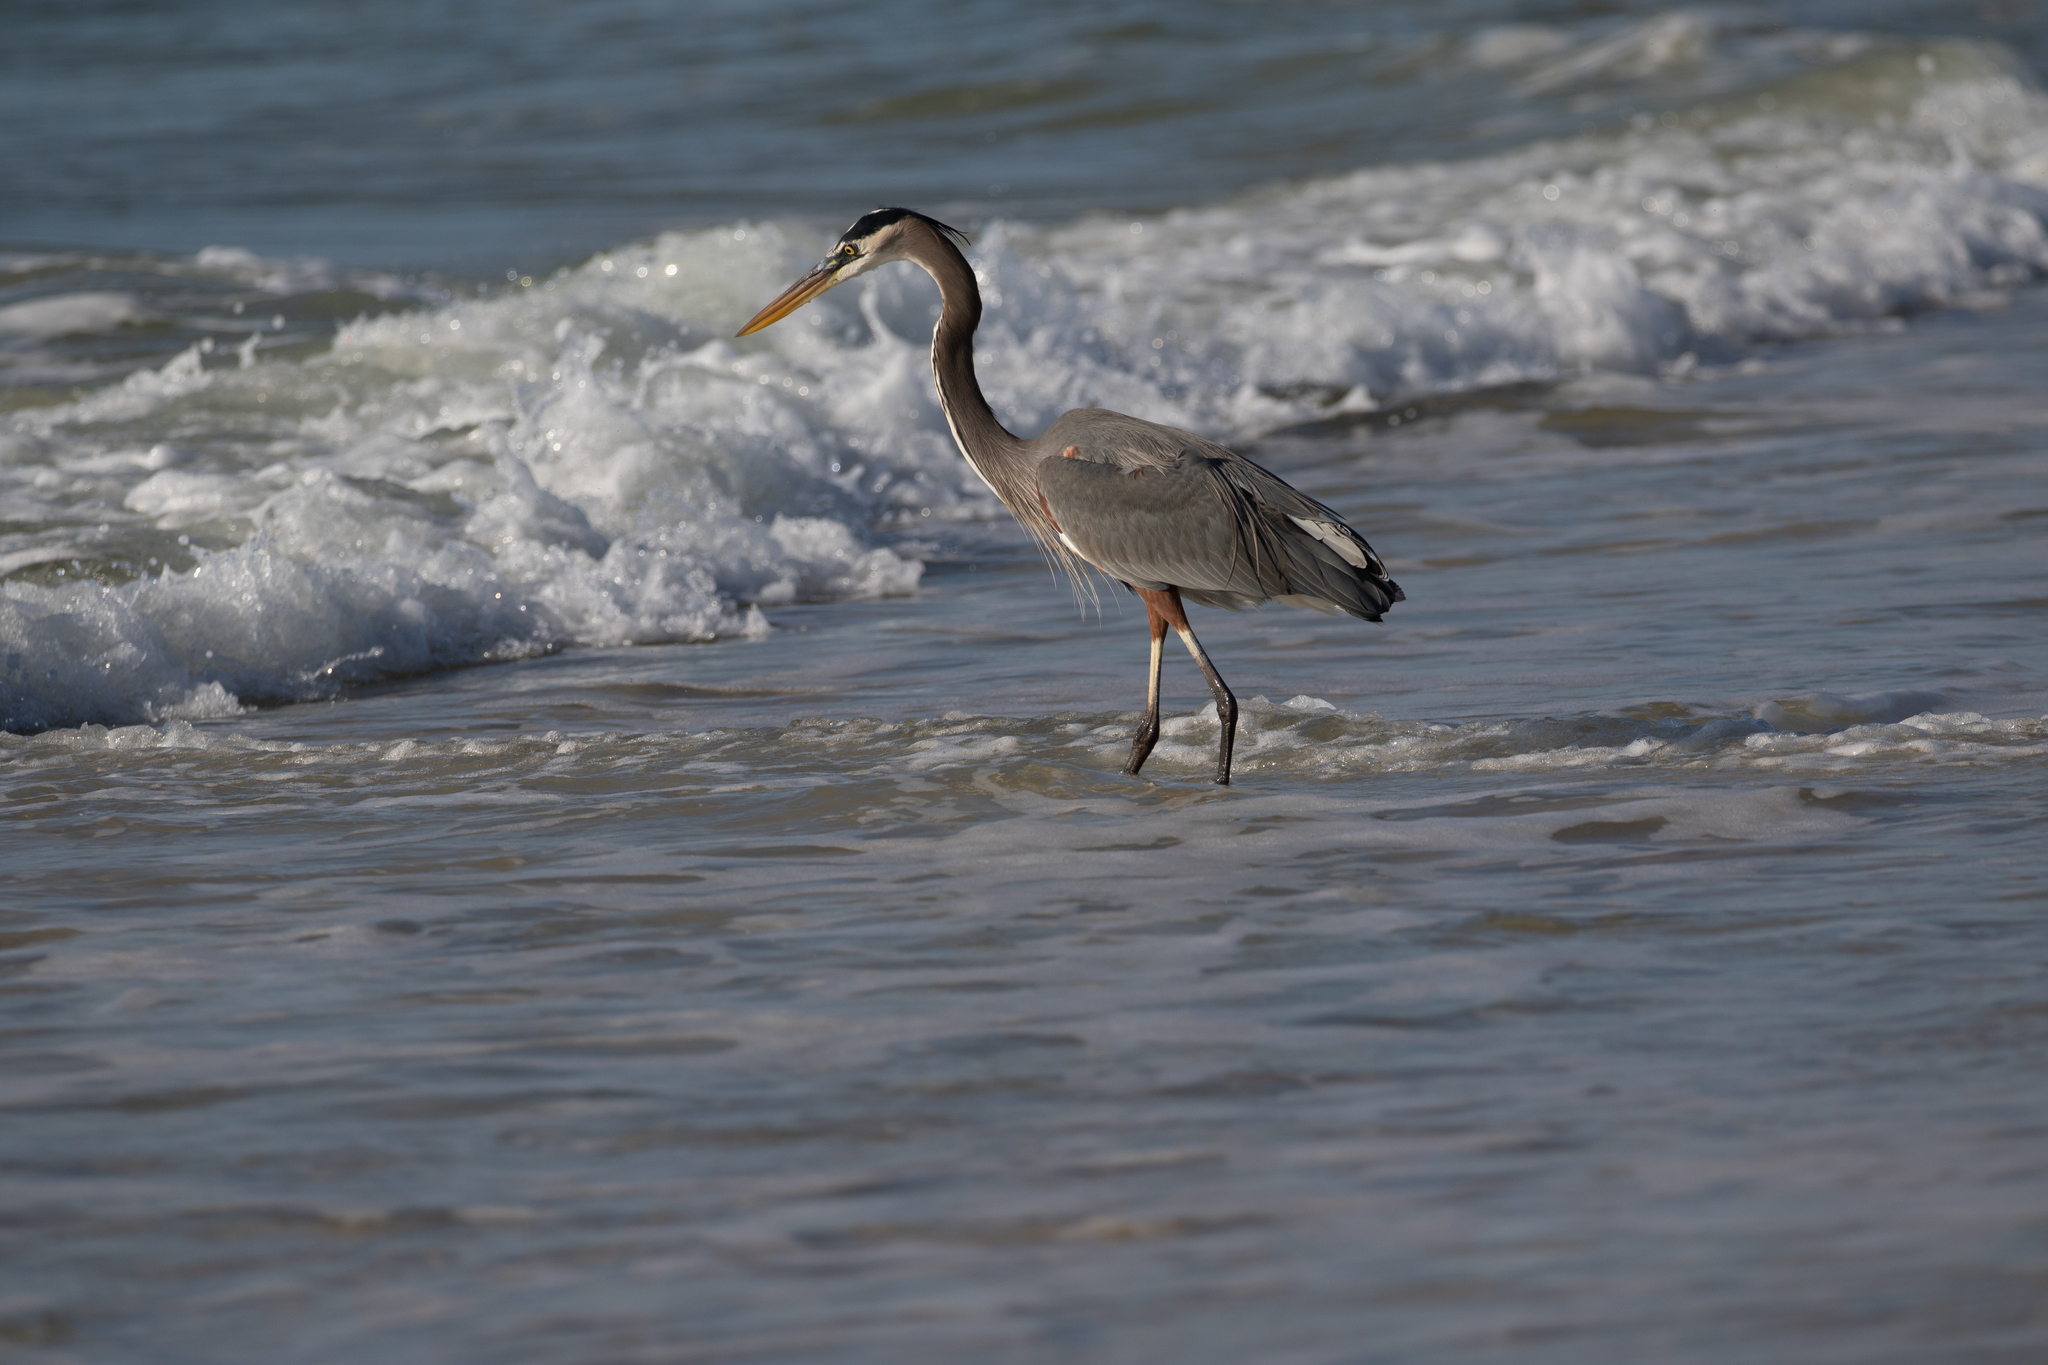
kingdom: Animalia
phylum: Chordata
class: Aves
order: Pelecaniformes
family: Ardeidae
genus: Ardea
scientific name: Ardea herodias
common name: Great blue heron
